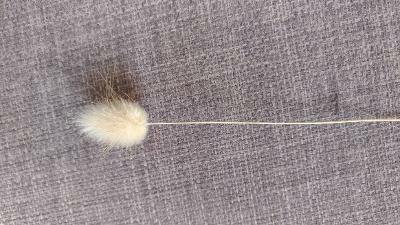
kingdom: Plantae
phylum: Tracheophyta
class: Liliopsida
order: Poales
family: Poaceae
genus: Lagurus
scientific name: Lagurus ovatus
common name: Hare's-tail
